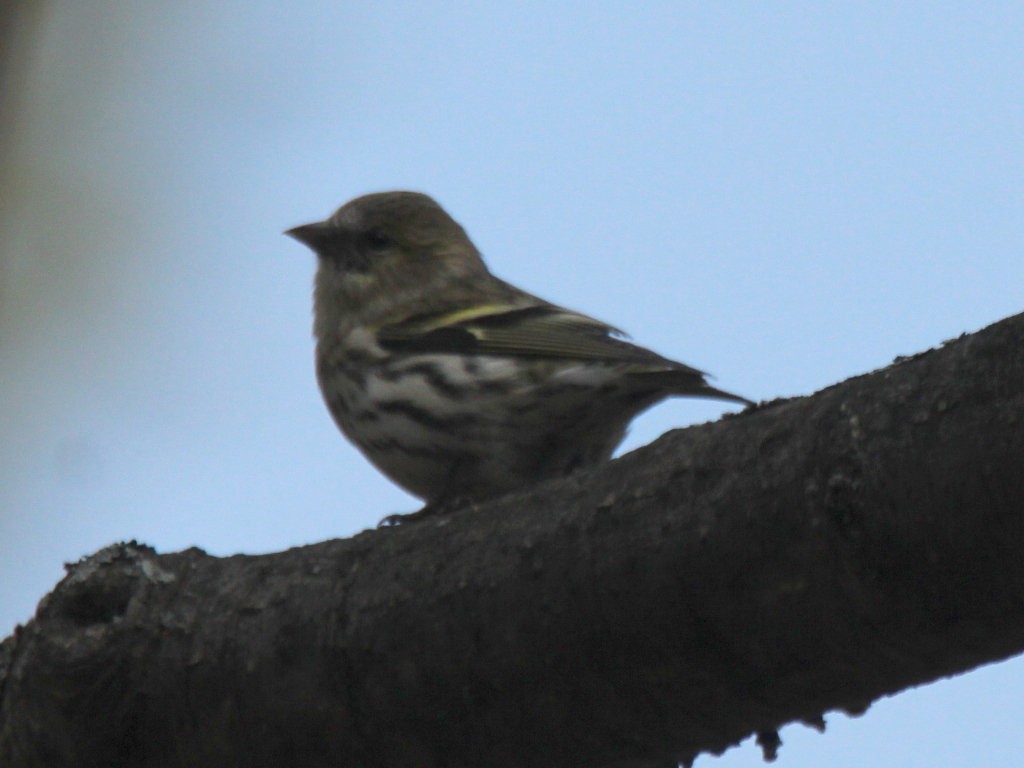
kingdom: Animalia
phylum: Chordata
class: Aves
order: Passeriformes
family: Fringillidae
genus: Spinus
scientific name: Spinus spinus
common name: Eurasian siskin
